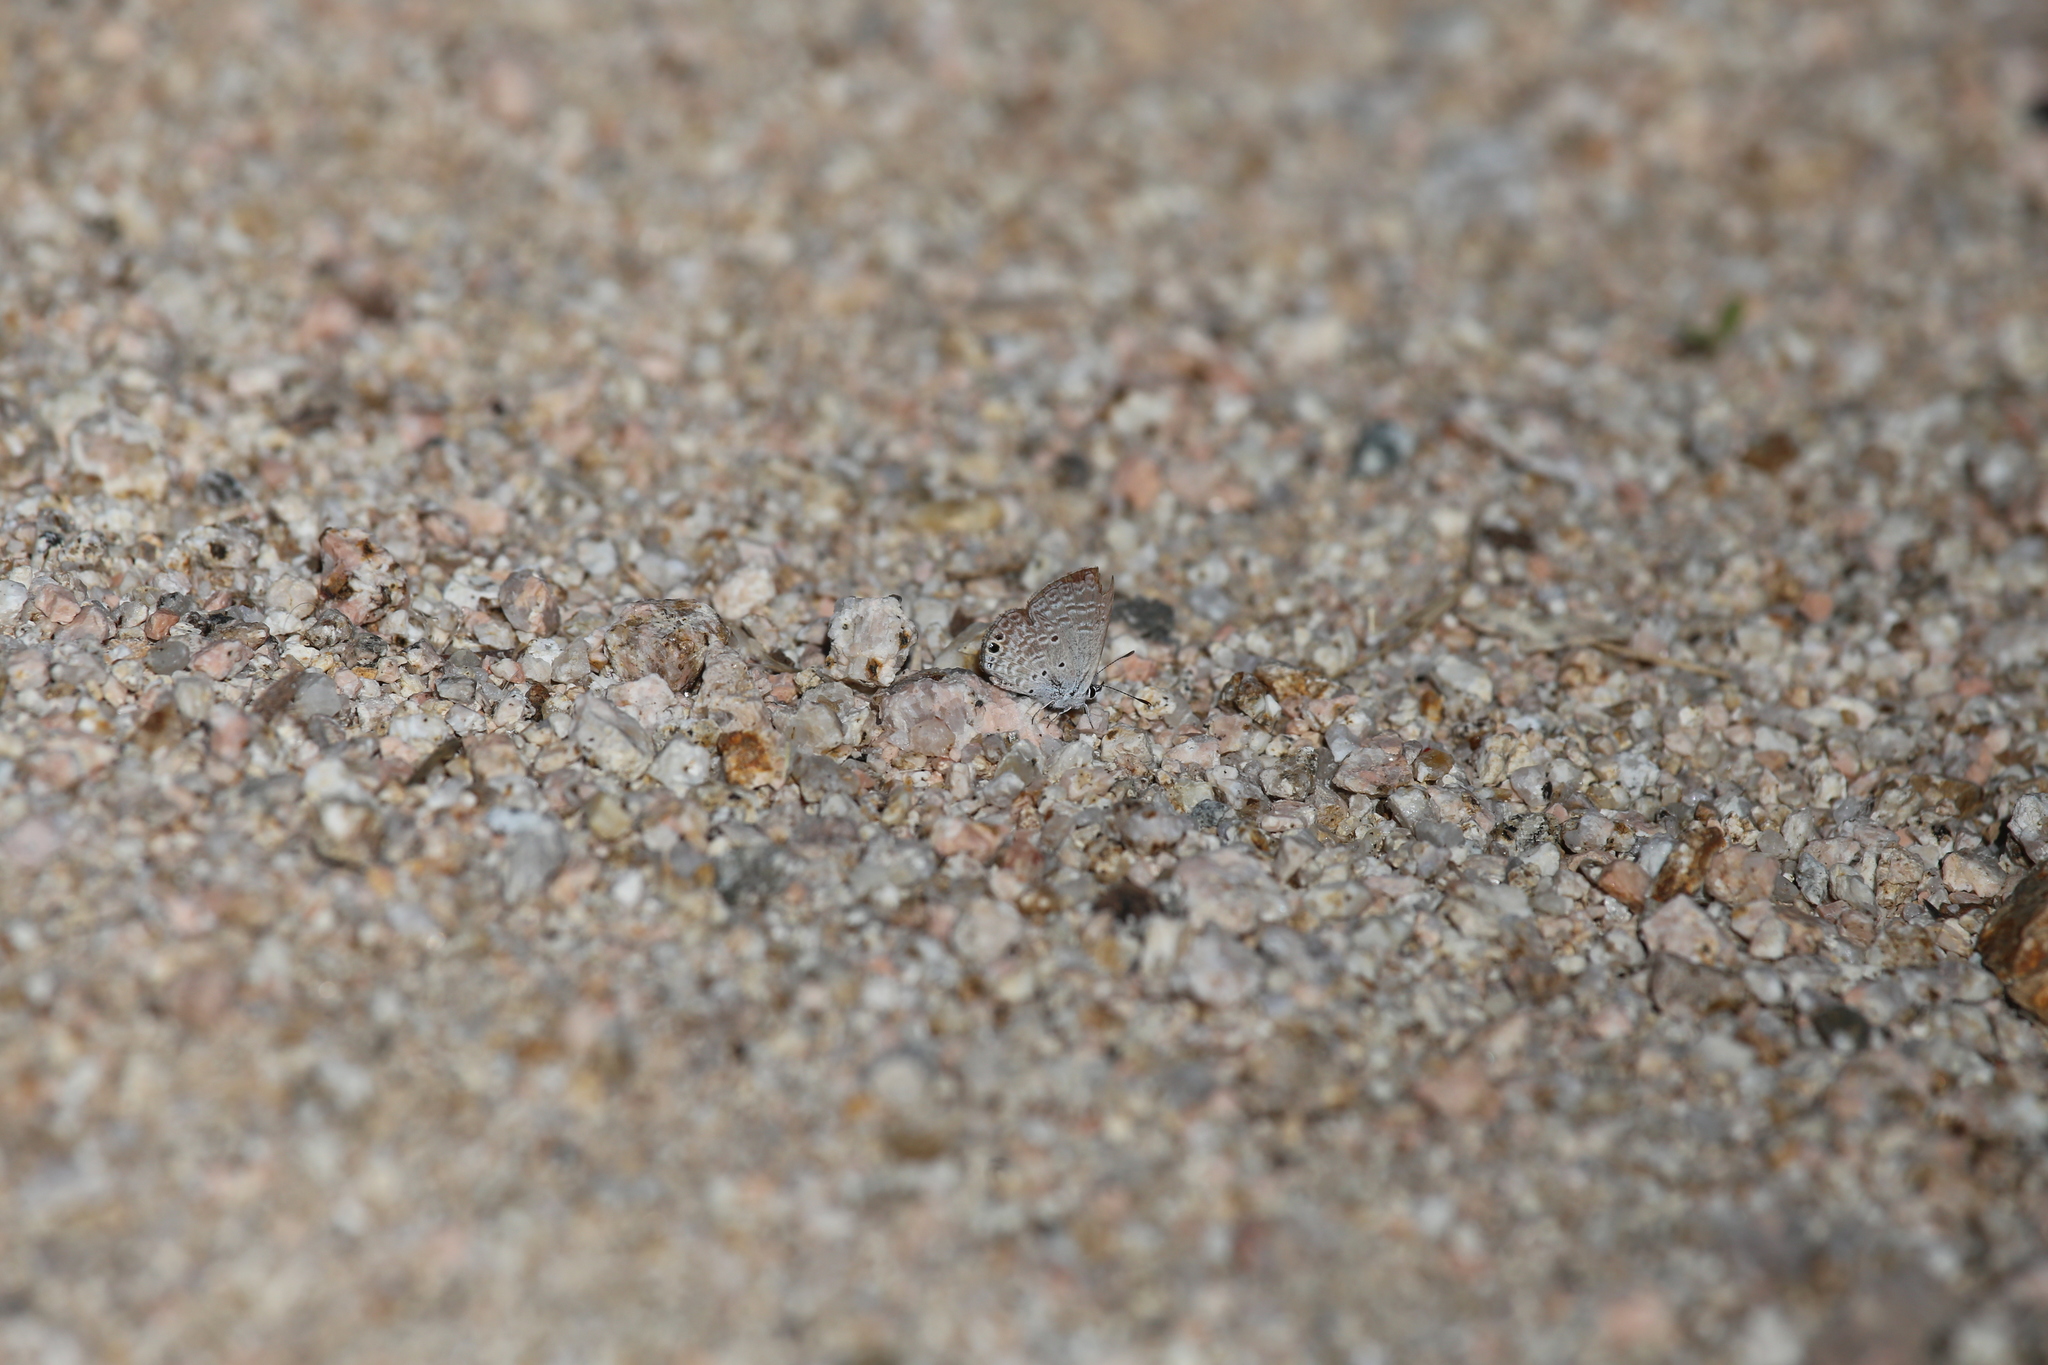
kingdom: Animalia
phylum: Arthropoda
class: Insecta
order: Lepidoptera
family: Lycaenidae
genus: Hemiargus
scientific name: Hemiargus ceraunus
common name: Ceraunus blue
